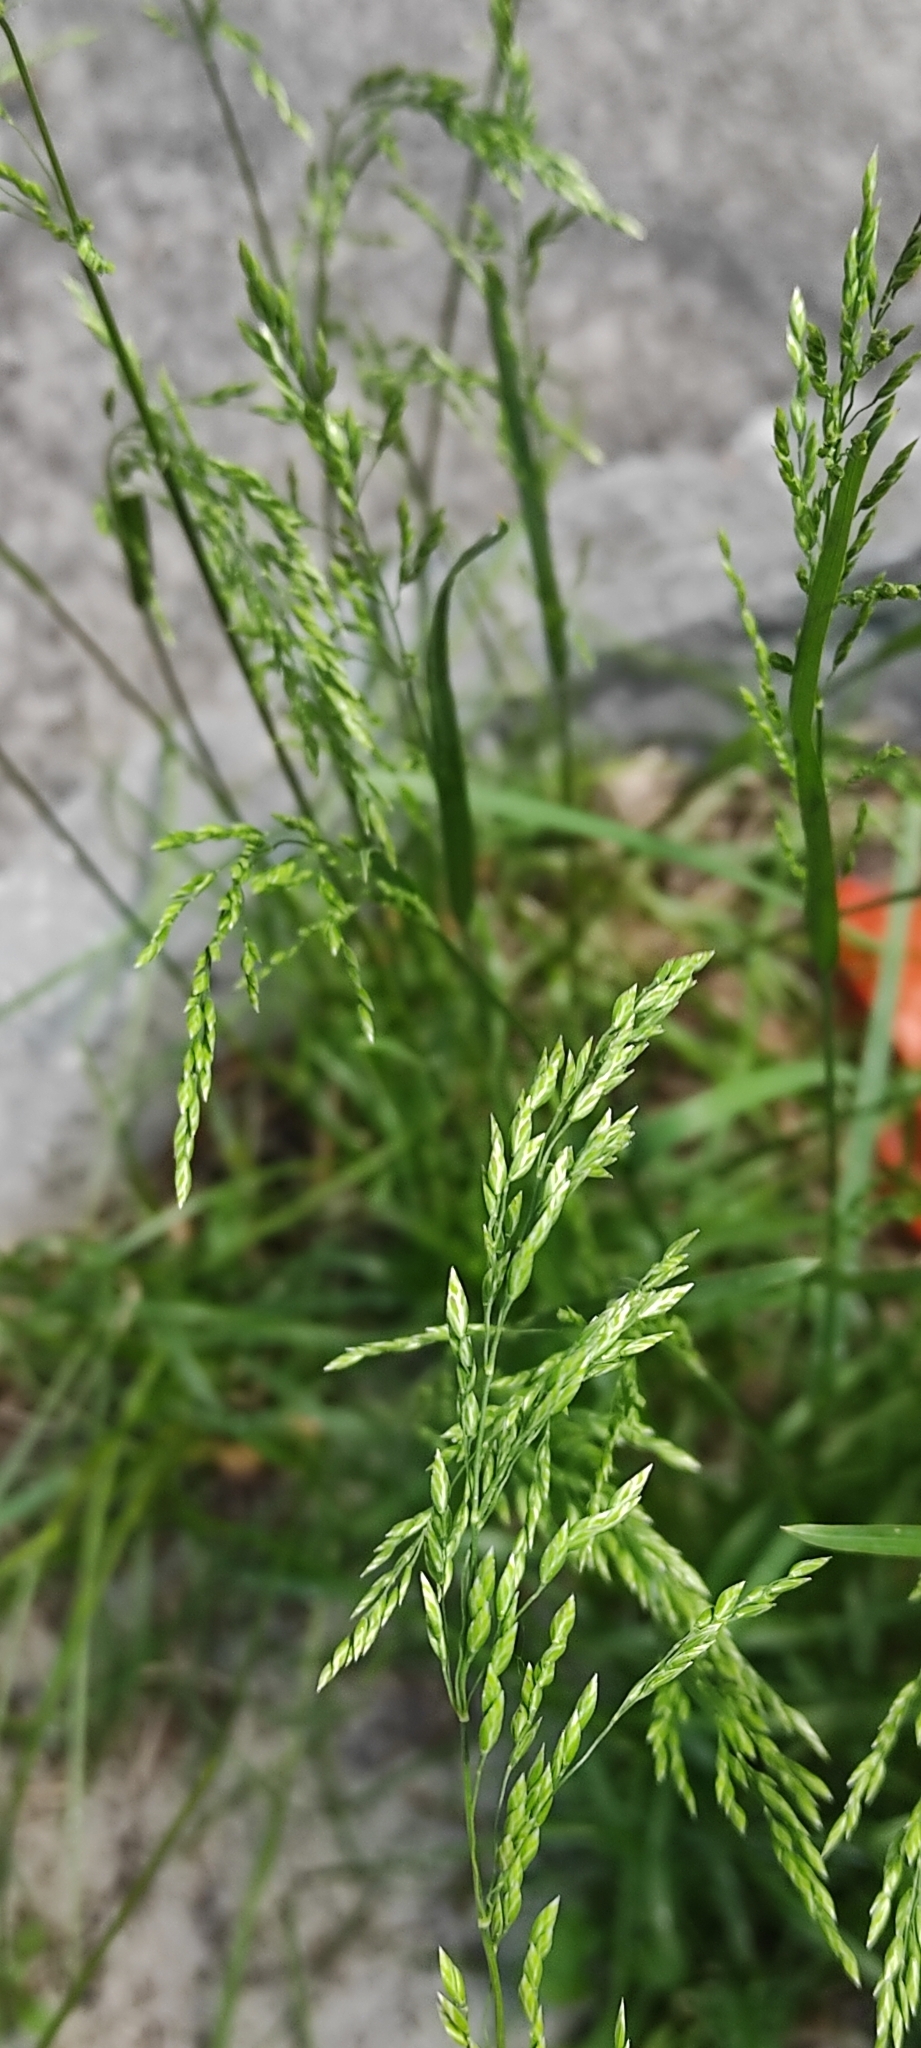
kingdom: Plantae
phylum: Tracheophyta
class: Liliopsida
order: Poales
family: Poaceae
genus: Poa
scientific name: Poa pratensis
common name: Kentucky bluegrass
